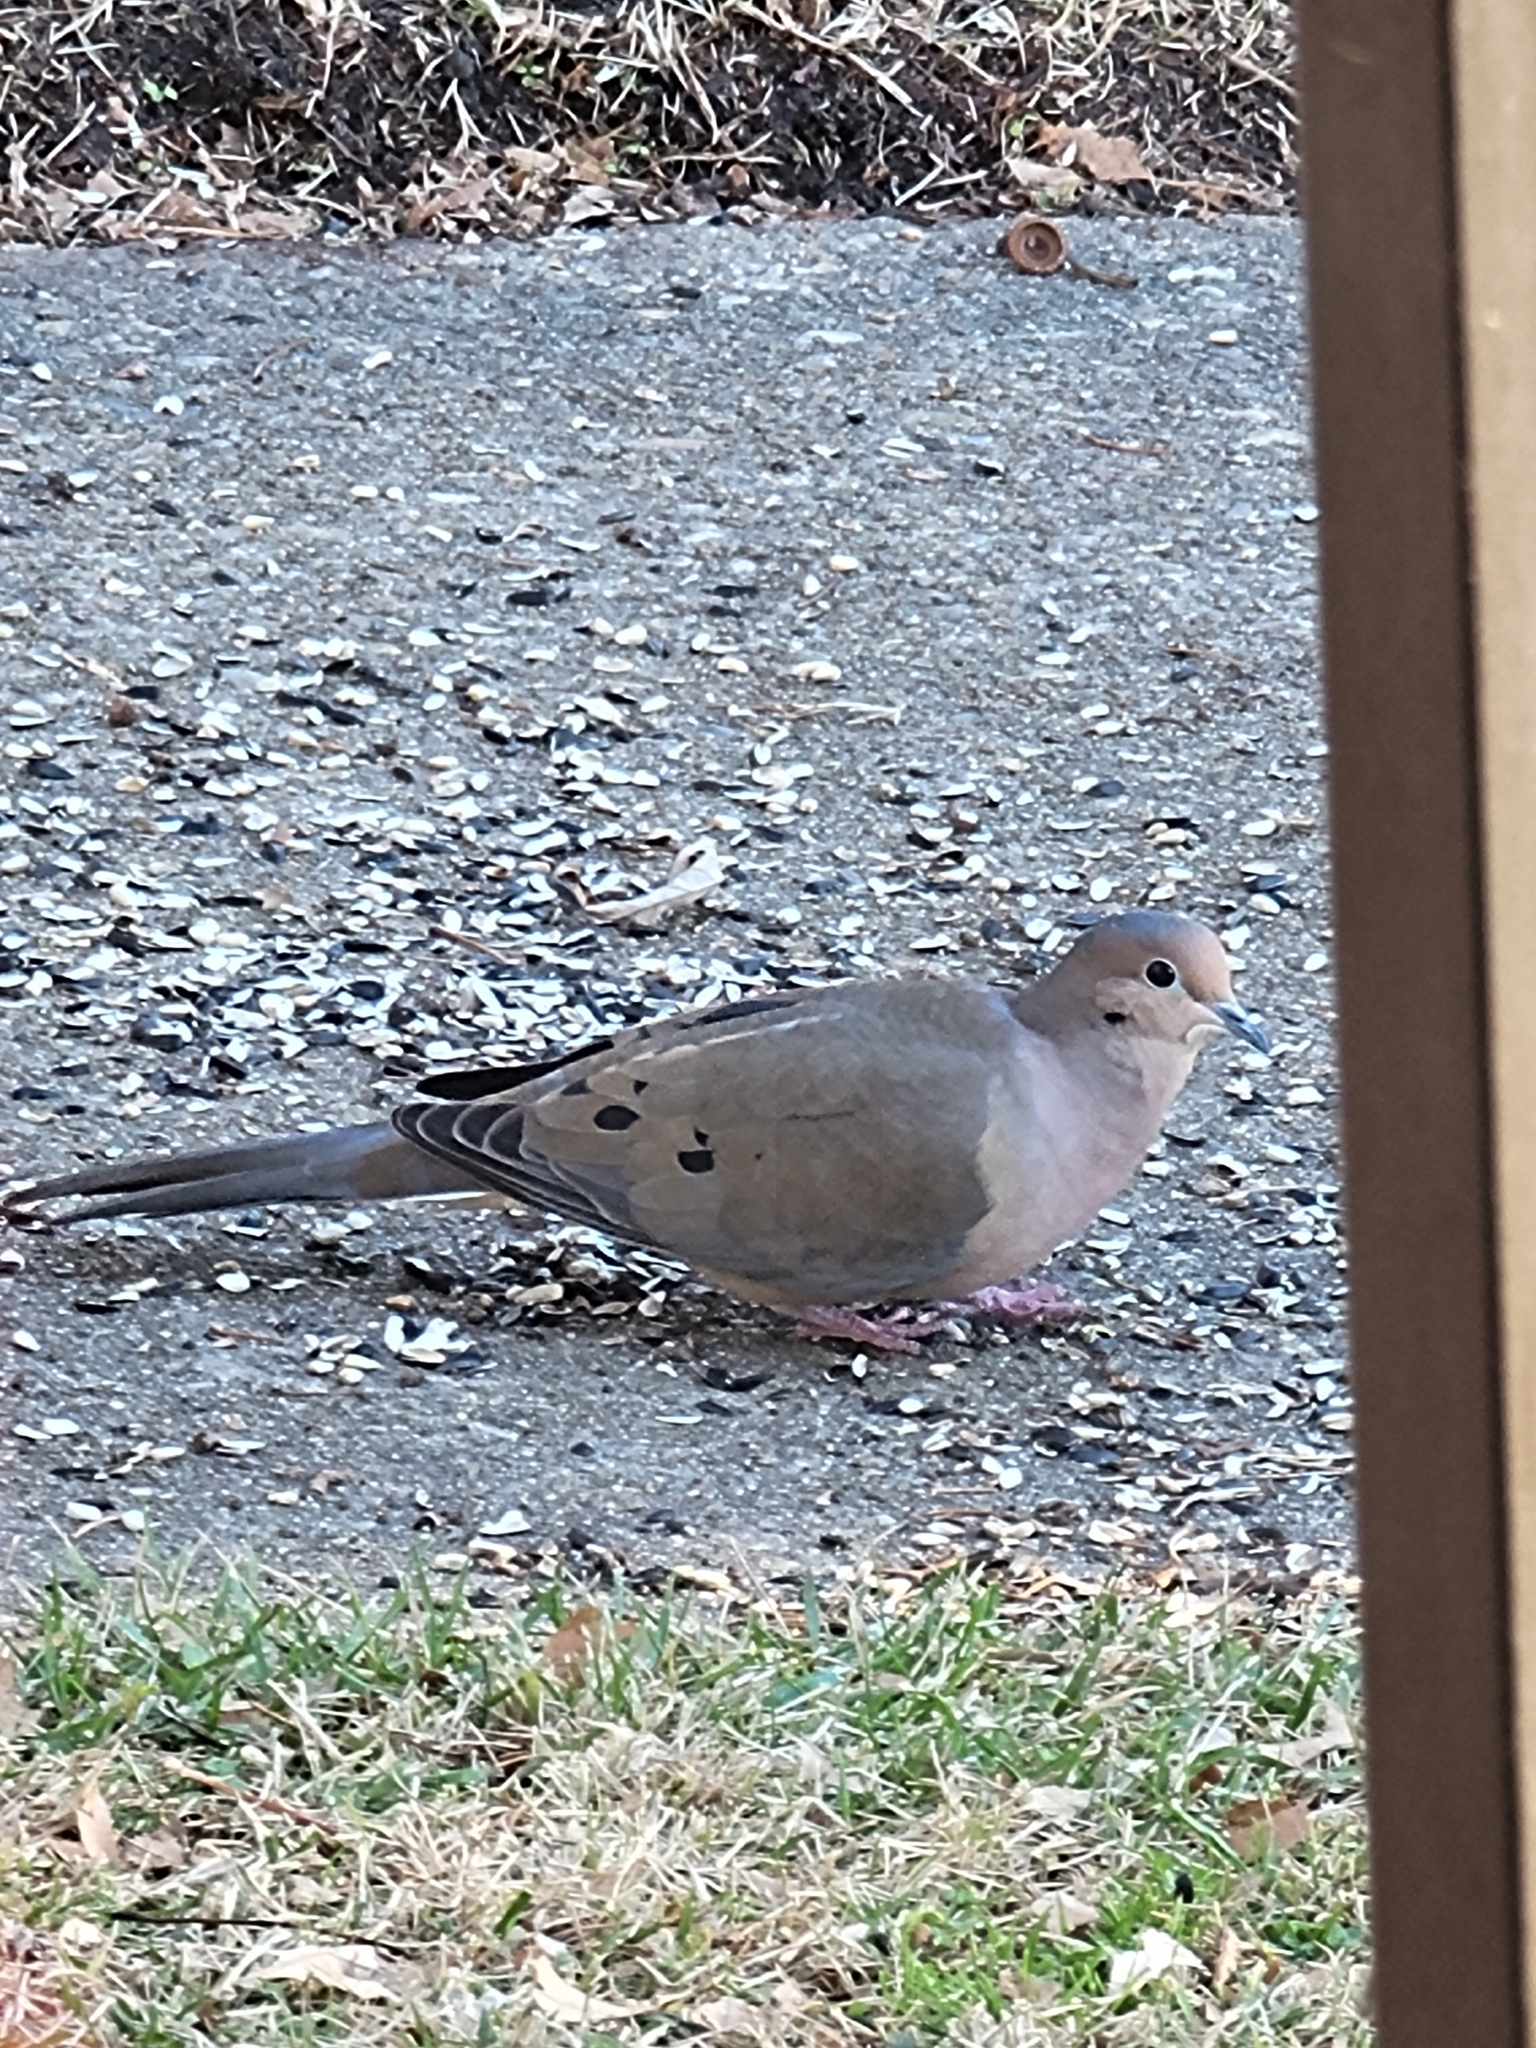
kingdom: Animalia
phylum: Chordata
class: Aves
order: Columbiformes
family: Columbidae
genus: Zenaida
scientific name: Zenaida macroura
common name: Mourning dove
